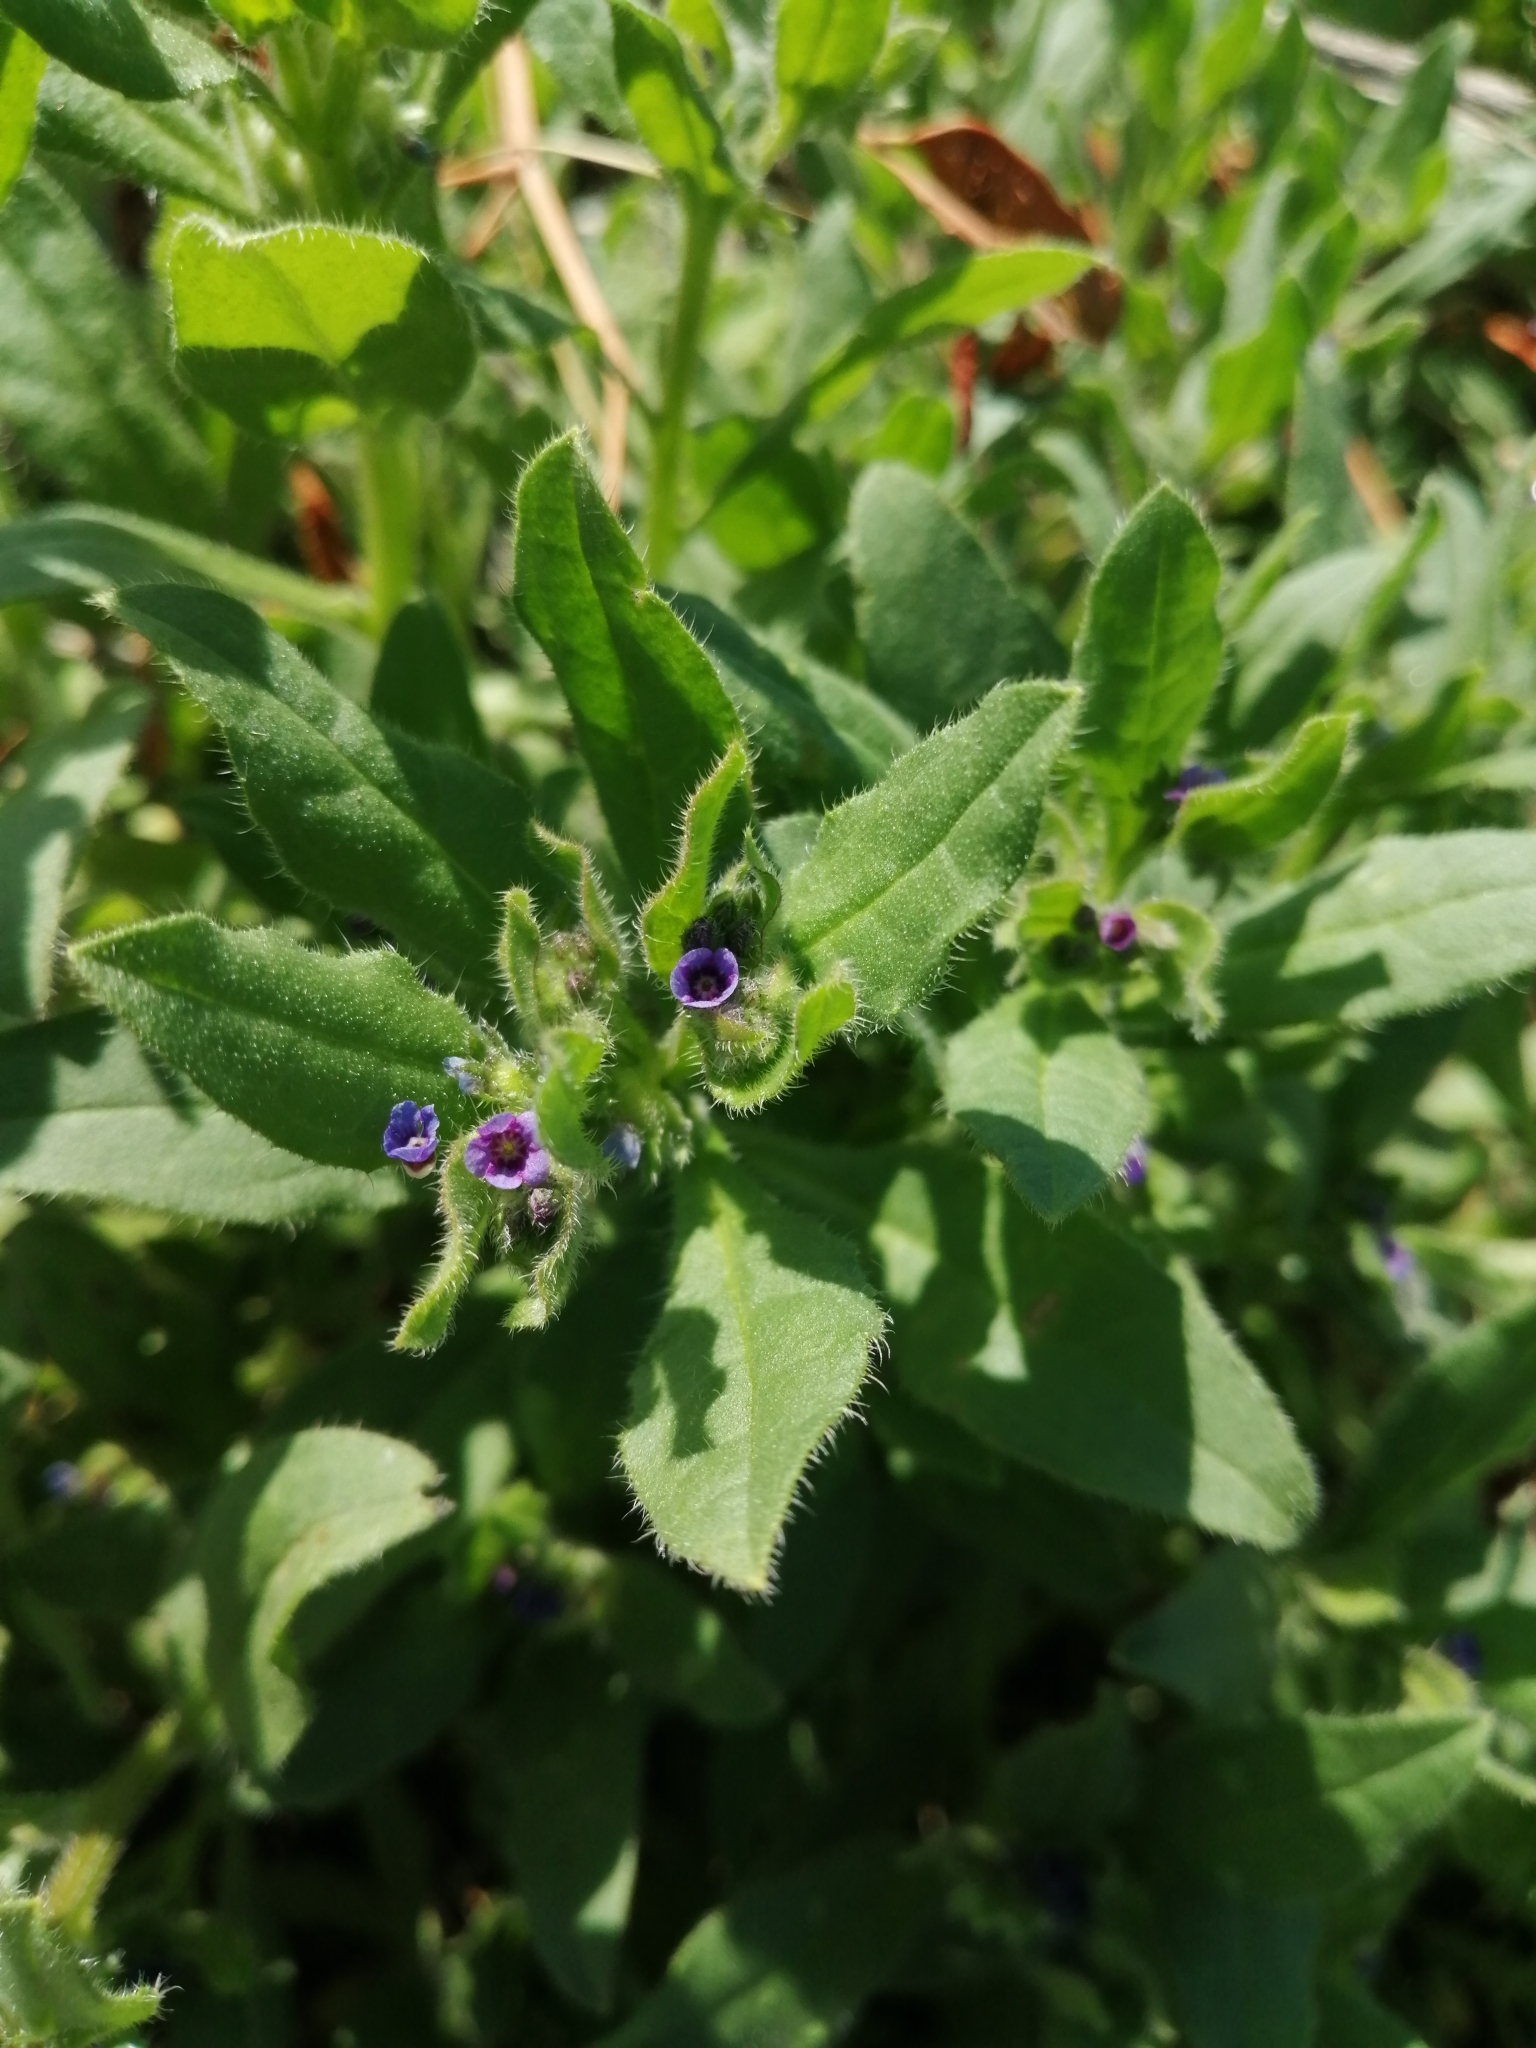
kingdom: Plantae
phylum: Tracheophyta
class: Magnoliopsida
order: Boraginales
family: Boraginaceae
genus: Asperugo
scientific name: Asperugo procumbens
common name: Madwort
